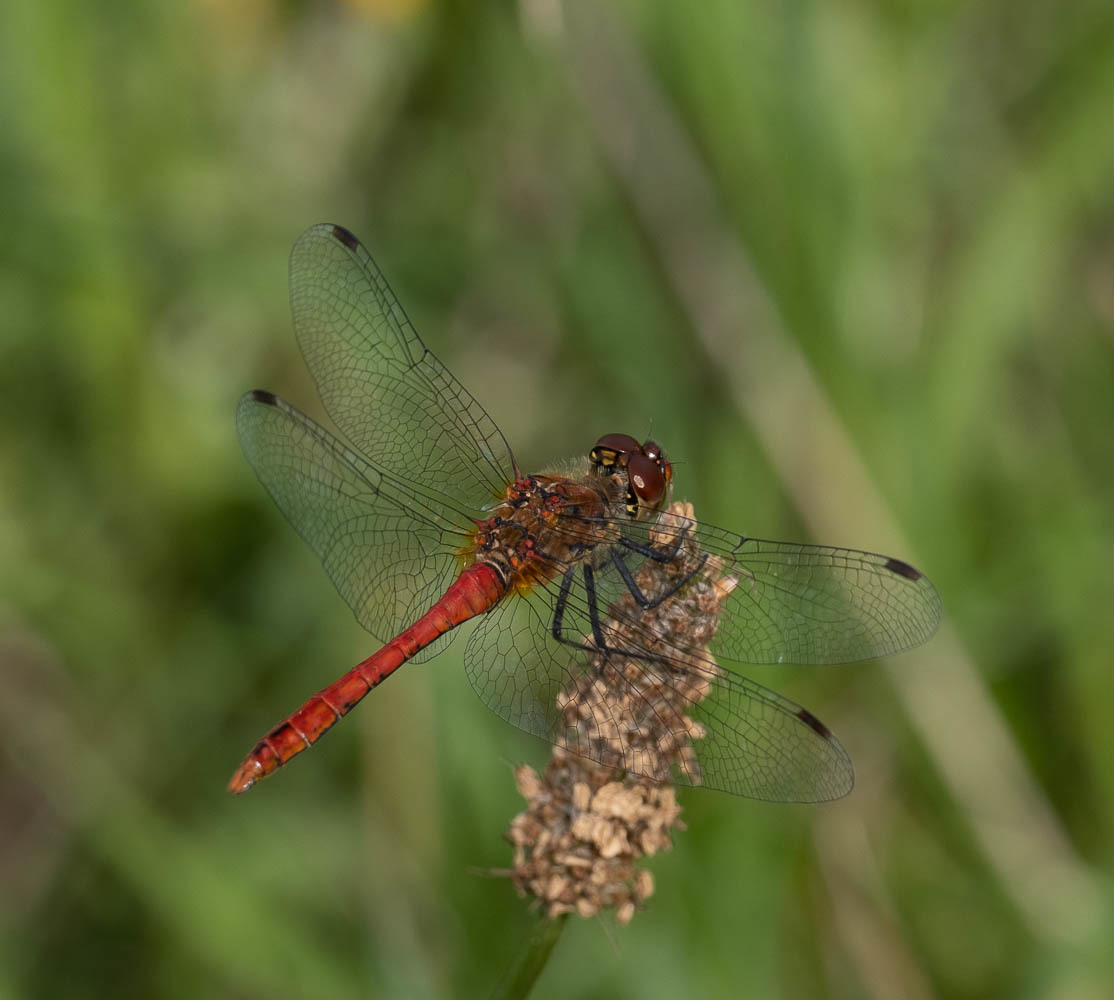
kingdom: Animalia
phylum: Arthropoda
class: Insecta
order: Odonata
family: Libellulidae
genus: Sympetrum
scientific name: Sympetrum sanguineum
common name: Ruddy darter
